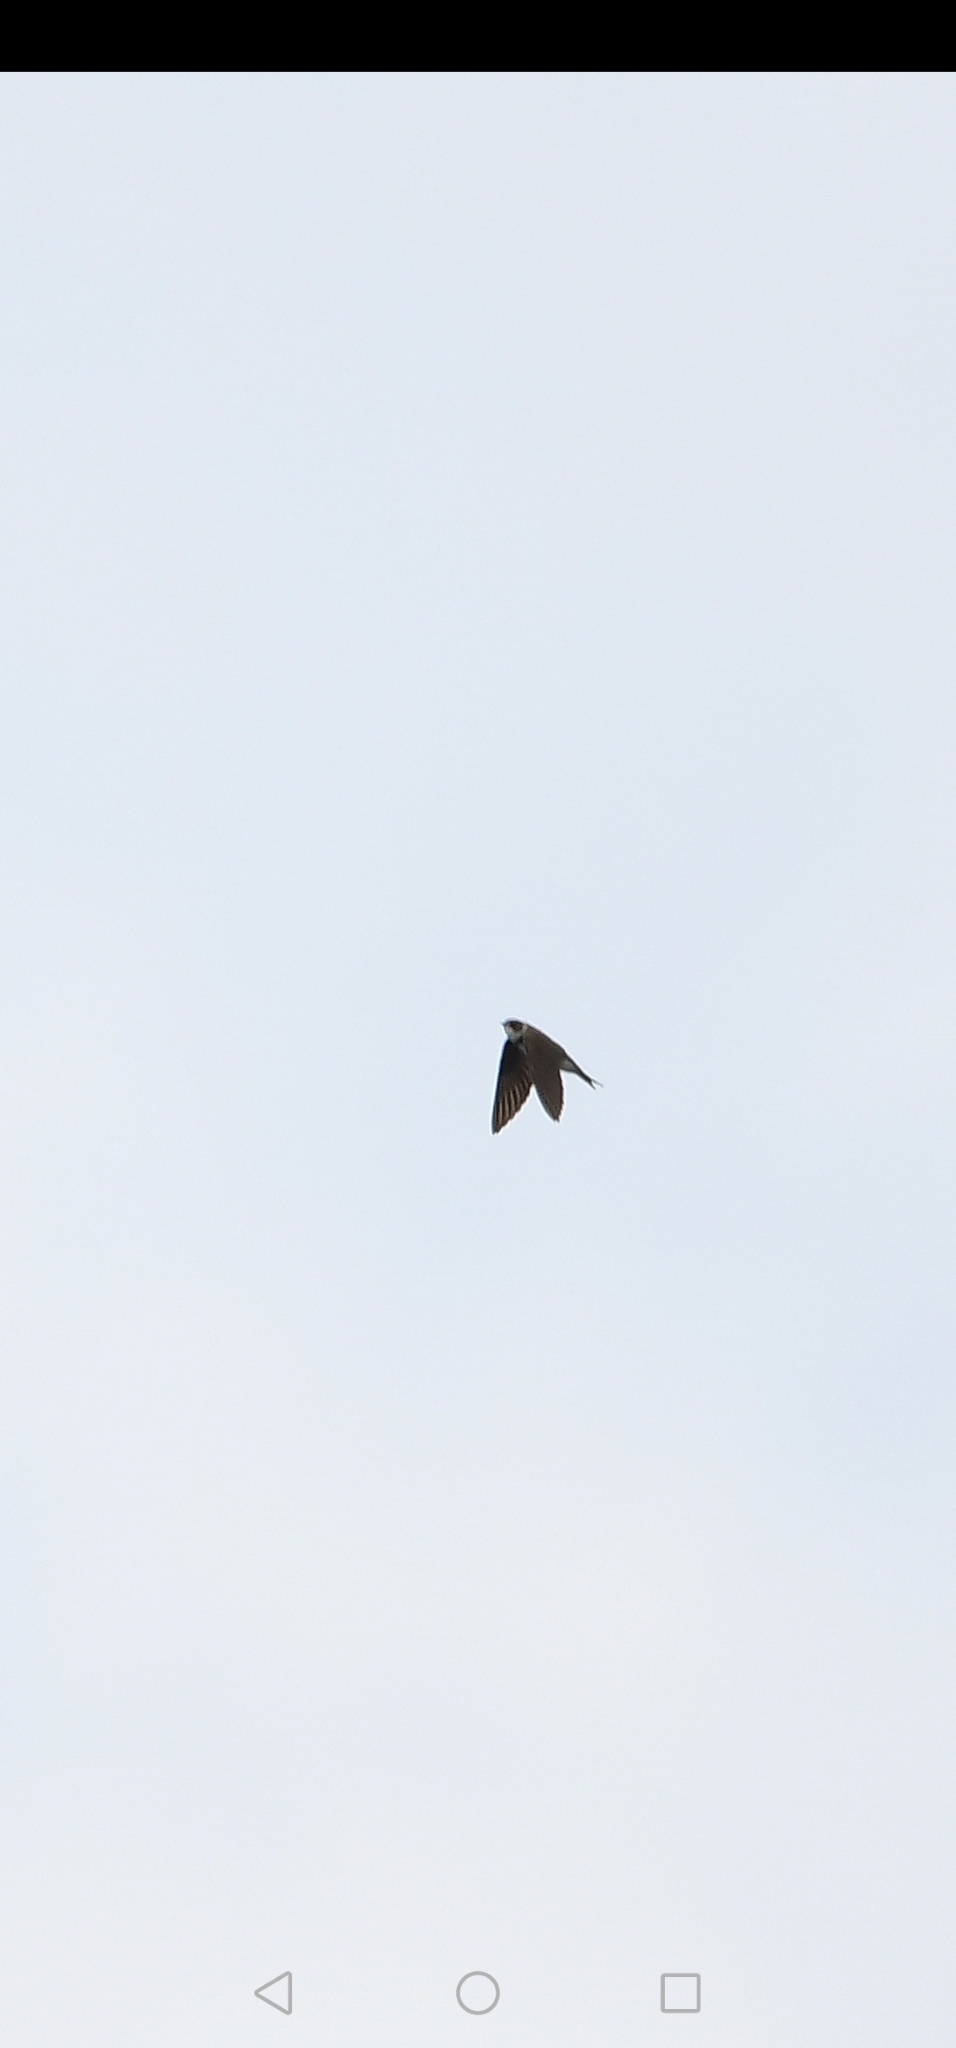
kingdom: Animalia
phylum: Chordata
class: Aves
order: Passeriformes
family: Hirundinidae
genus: Riparia
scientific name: Riparia riparia
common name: Sand martin
